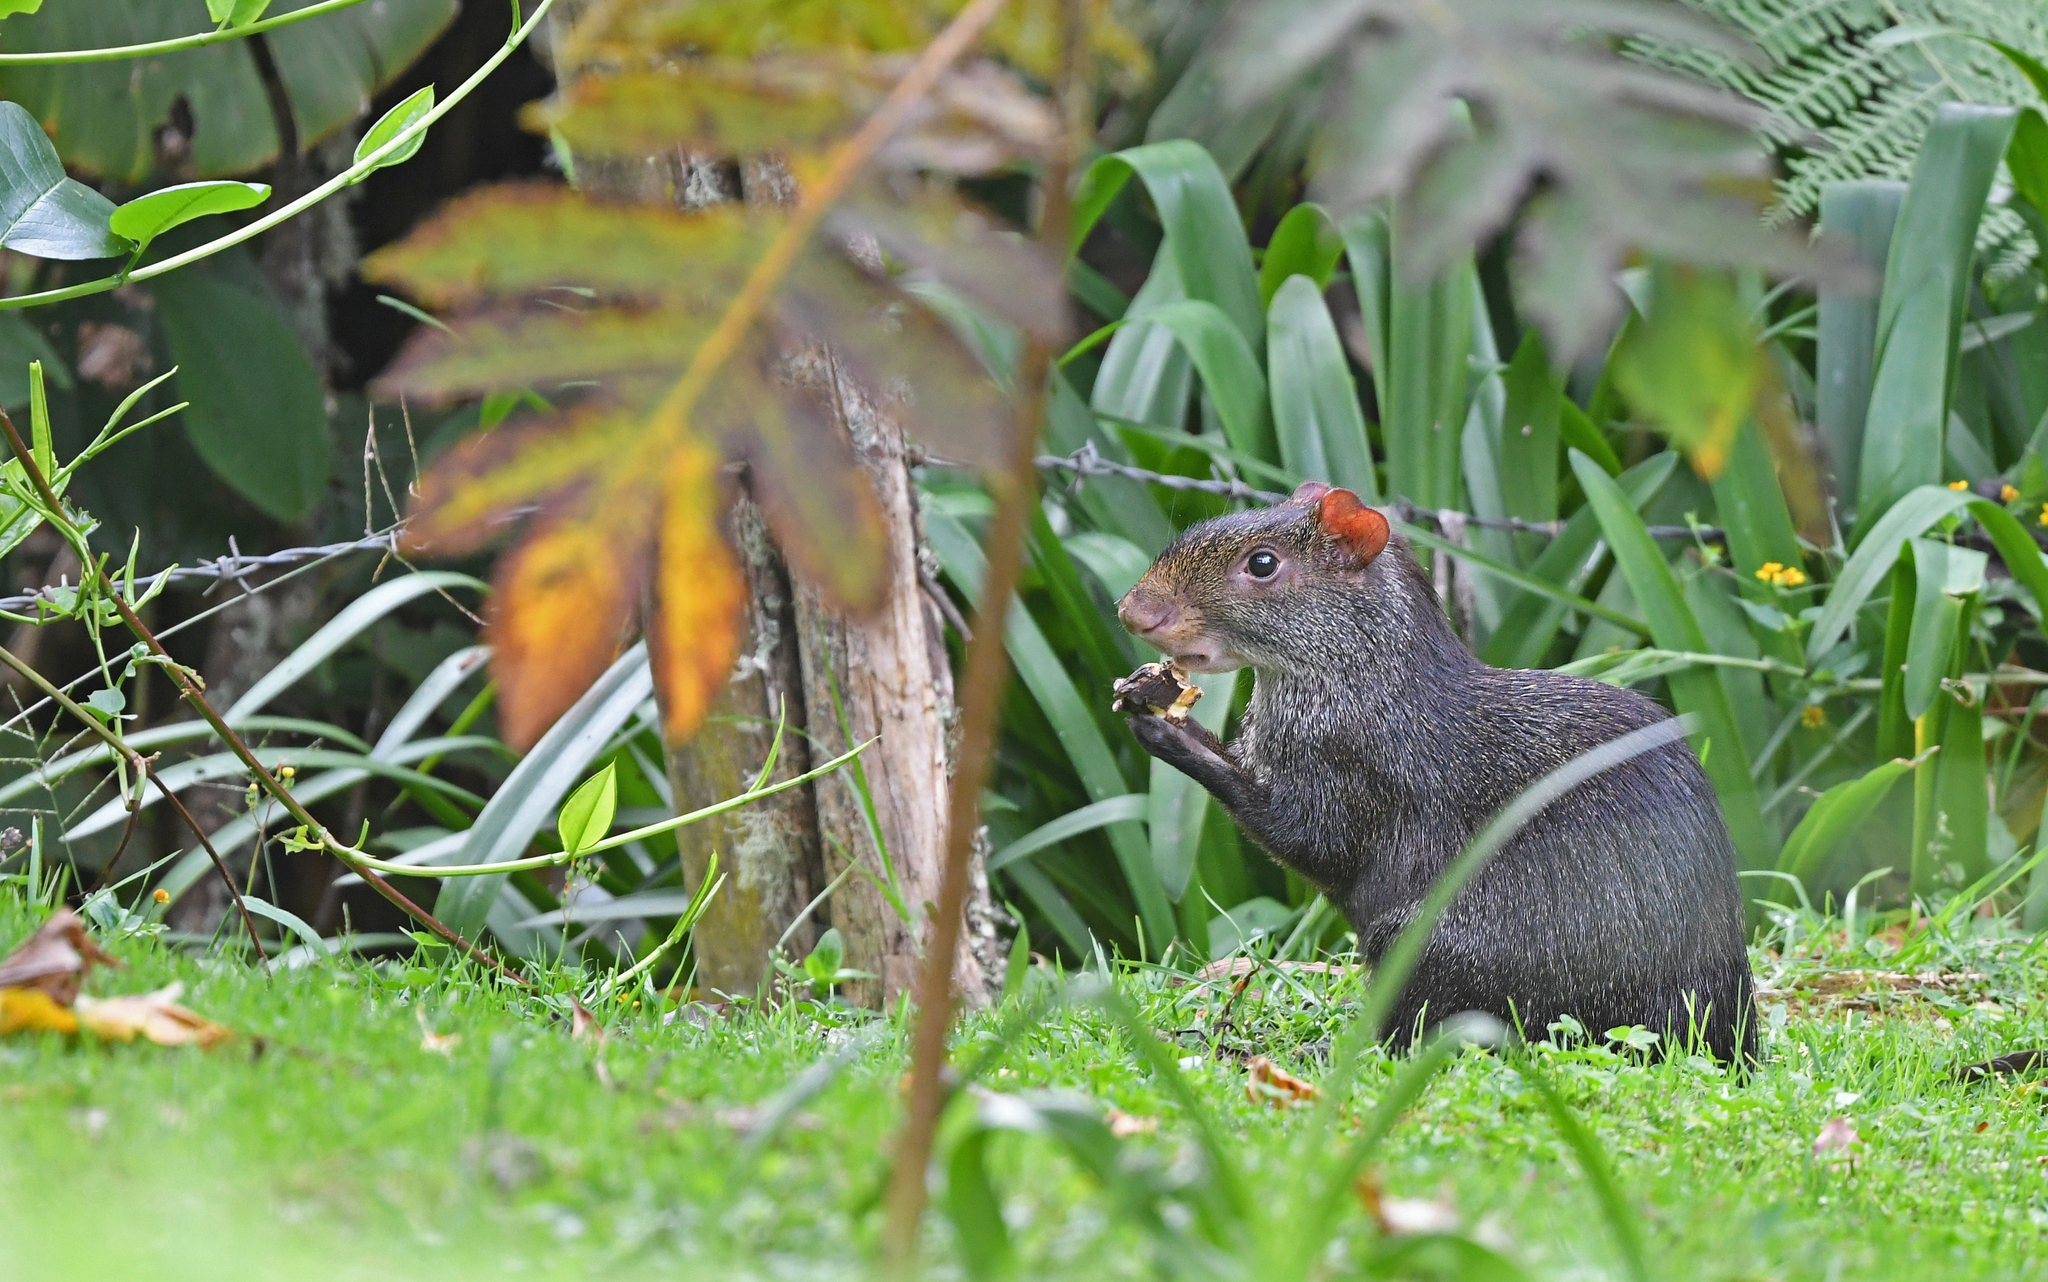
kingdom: Animalia
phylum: Chordata
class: Mammalia
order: Rodentia
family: Dasyproctidae
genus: Dasyprocta
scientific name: Dasyprocta punctata
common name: Central american agouti
